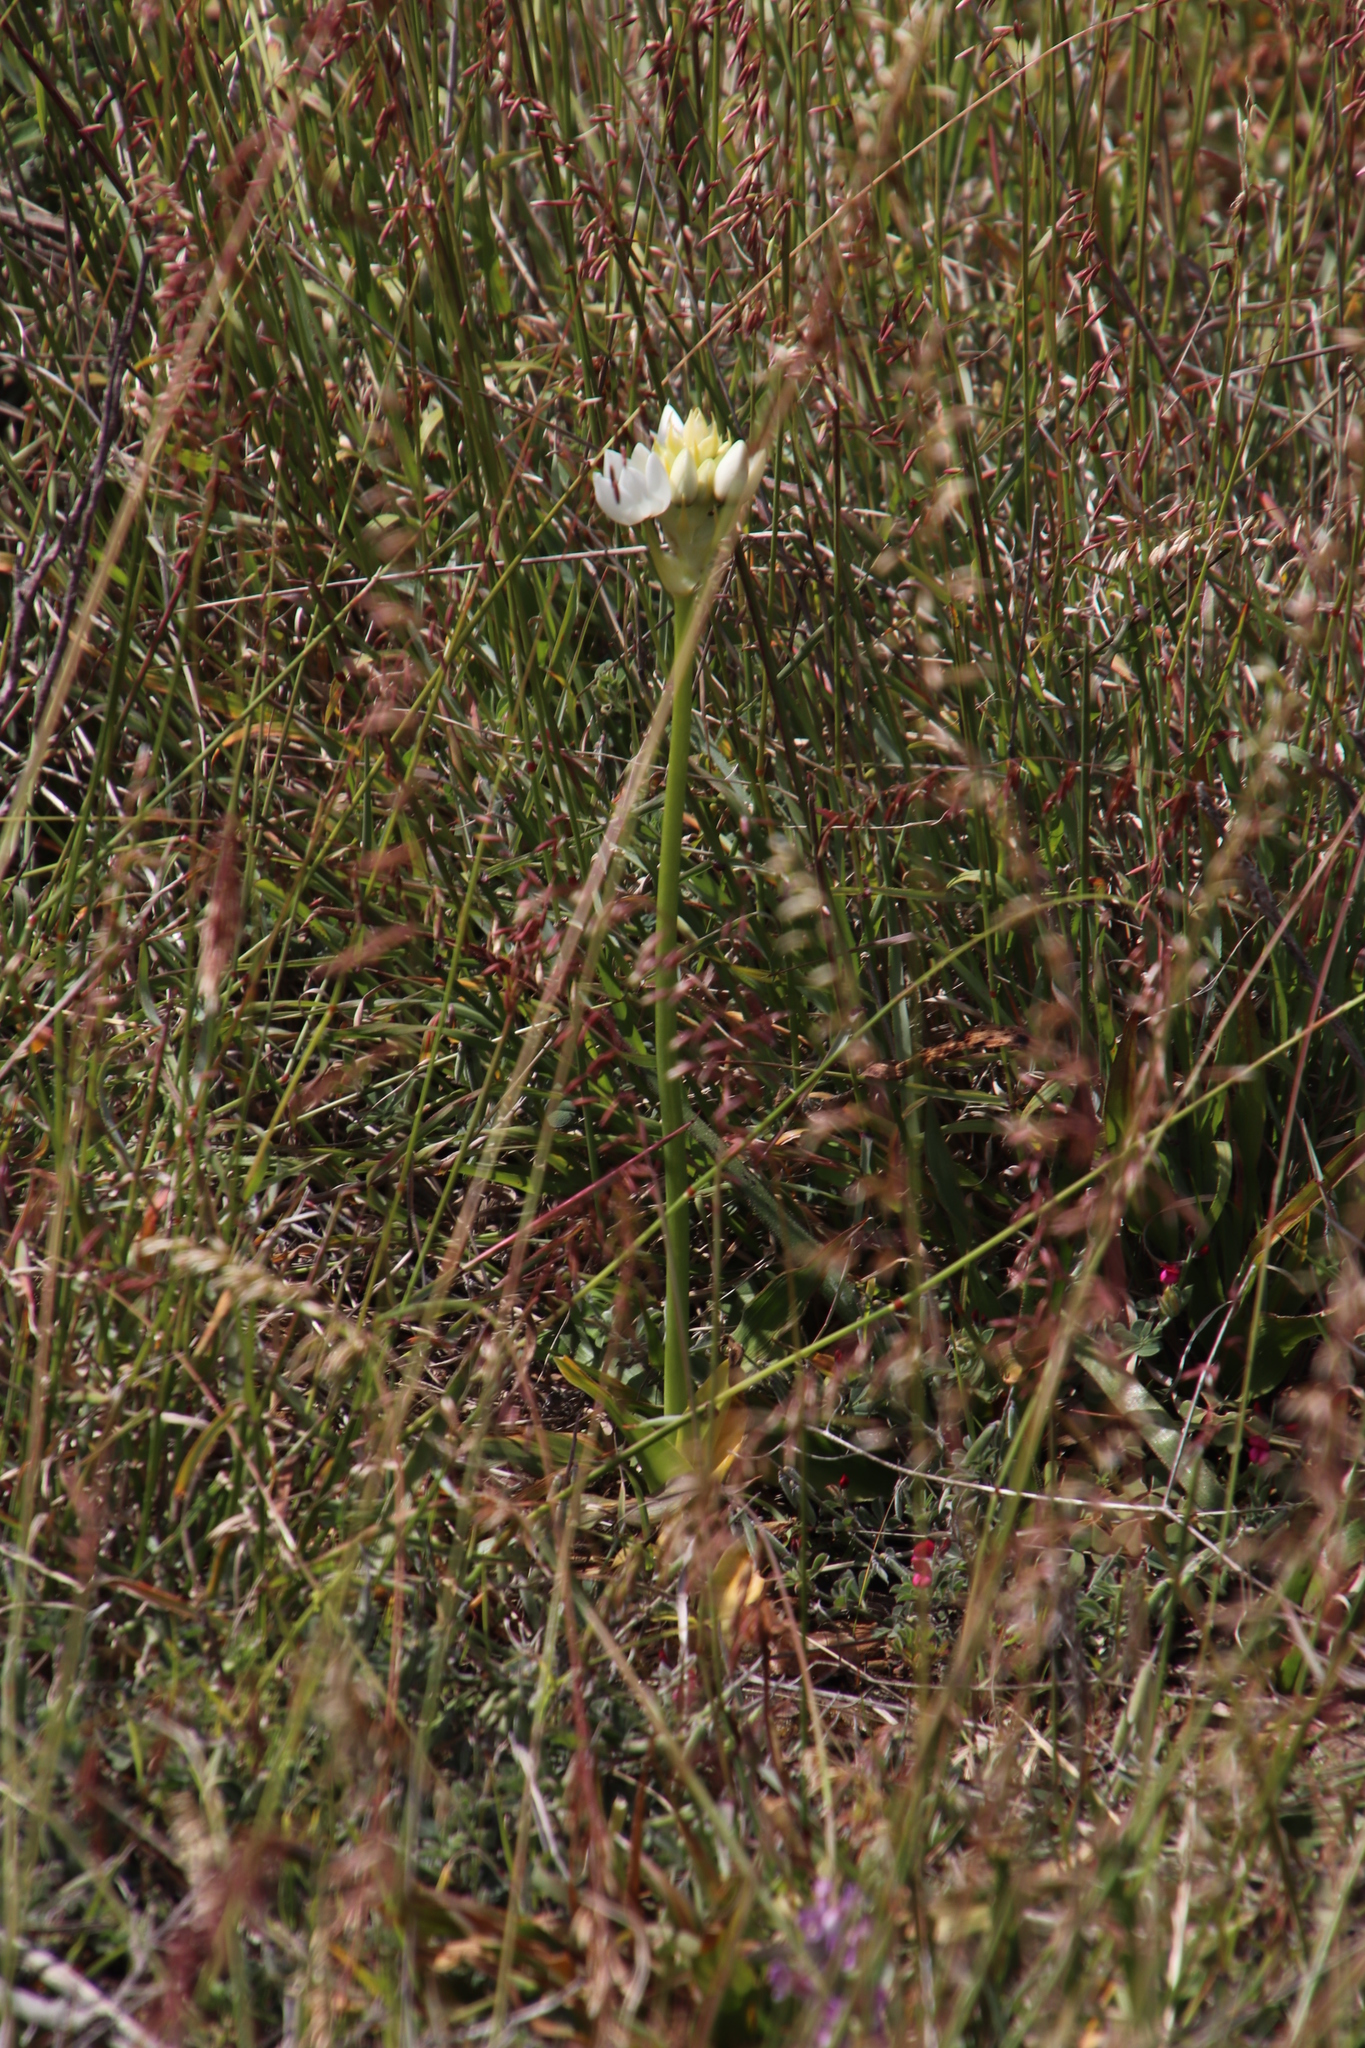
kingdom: Plantae
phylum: Tracheophyta
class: Liliopsida
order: Asparagales
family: Asparagaceae
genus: Ornithogalum
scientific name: Ornithogalum thyrsoides
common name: Chincherinchee
